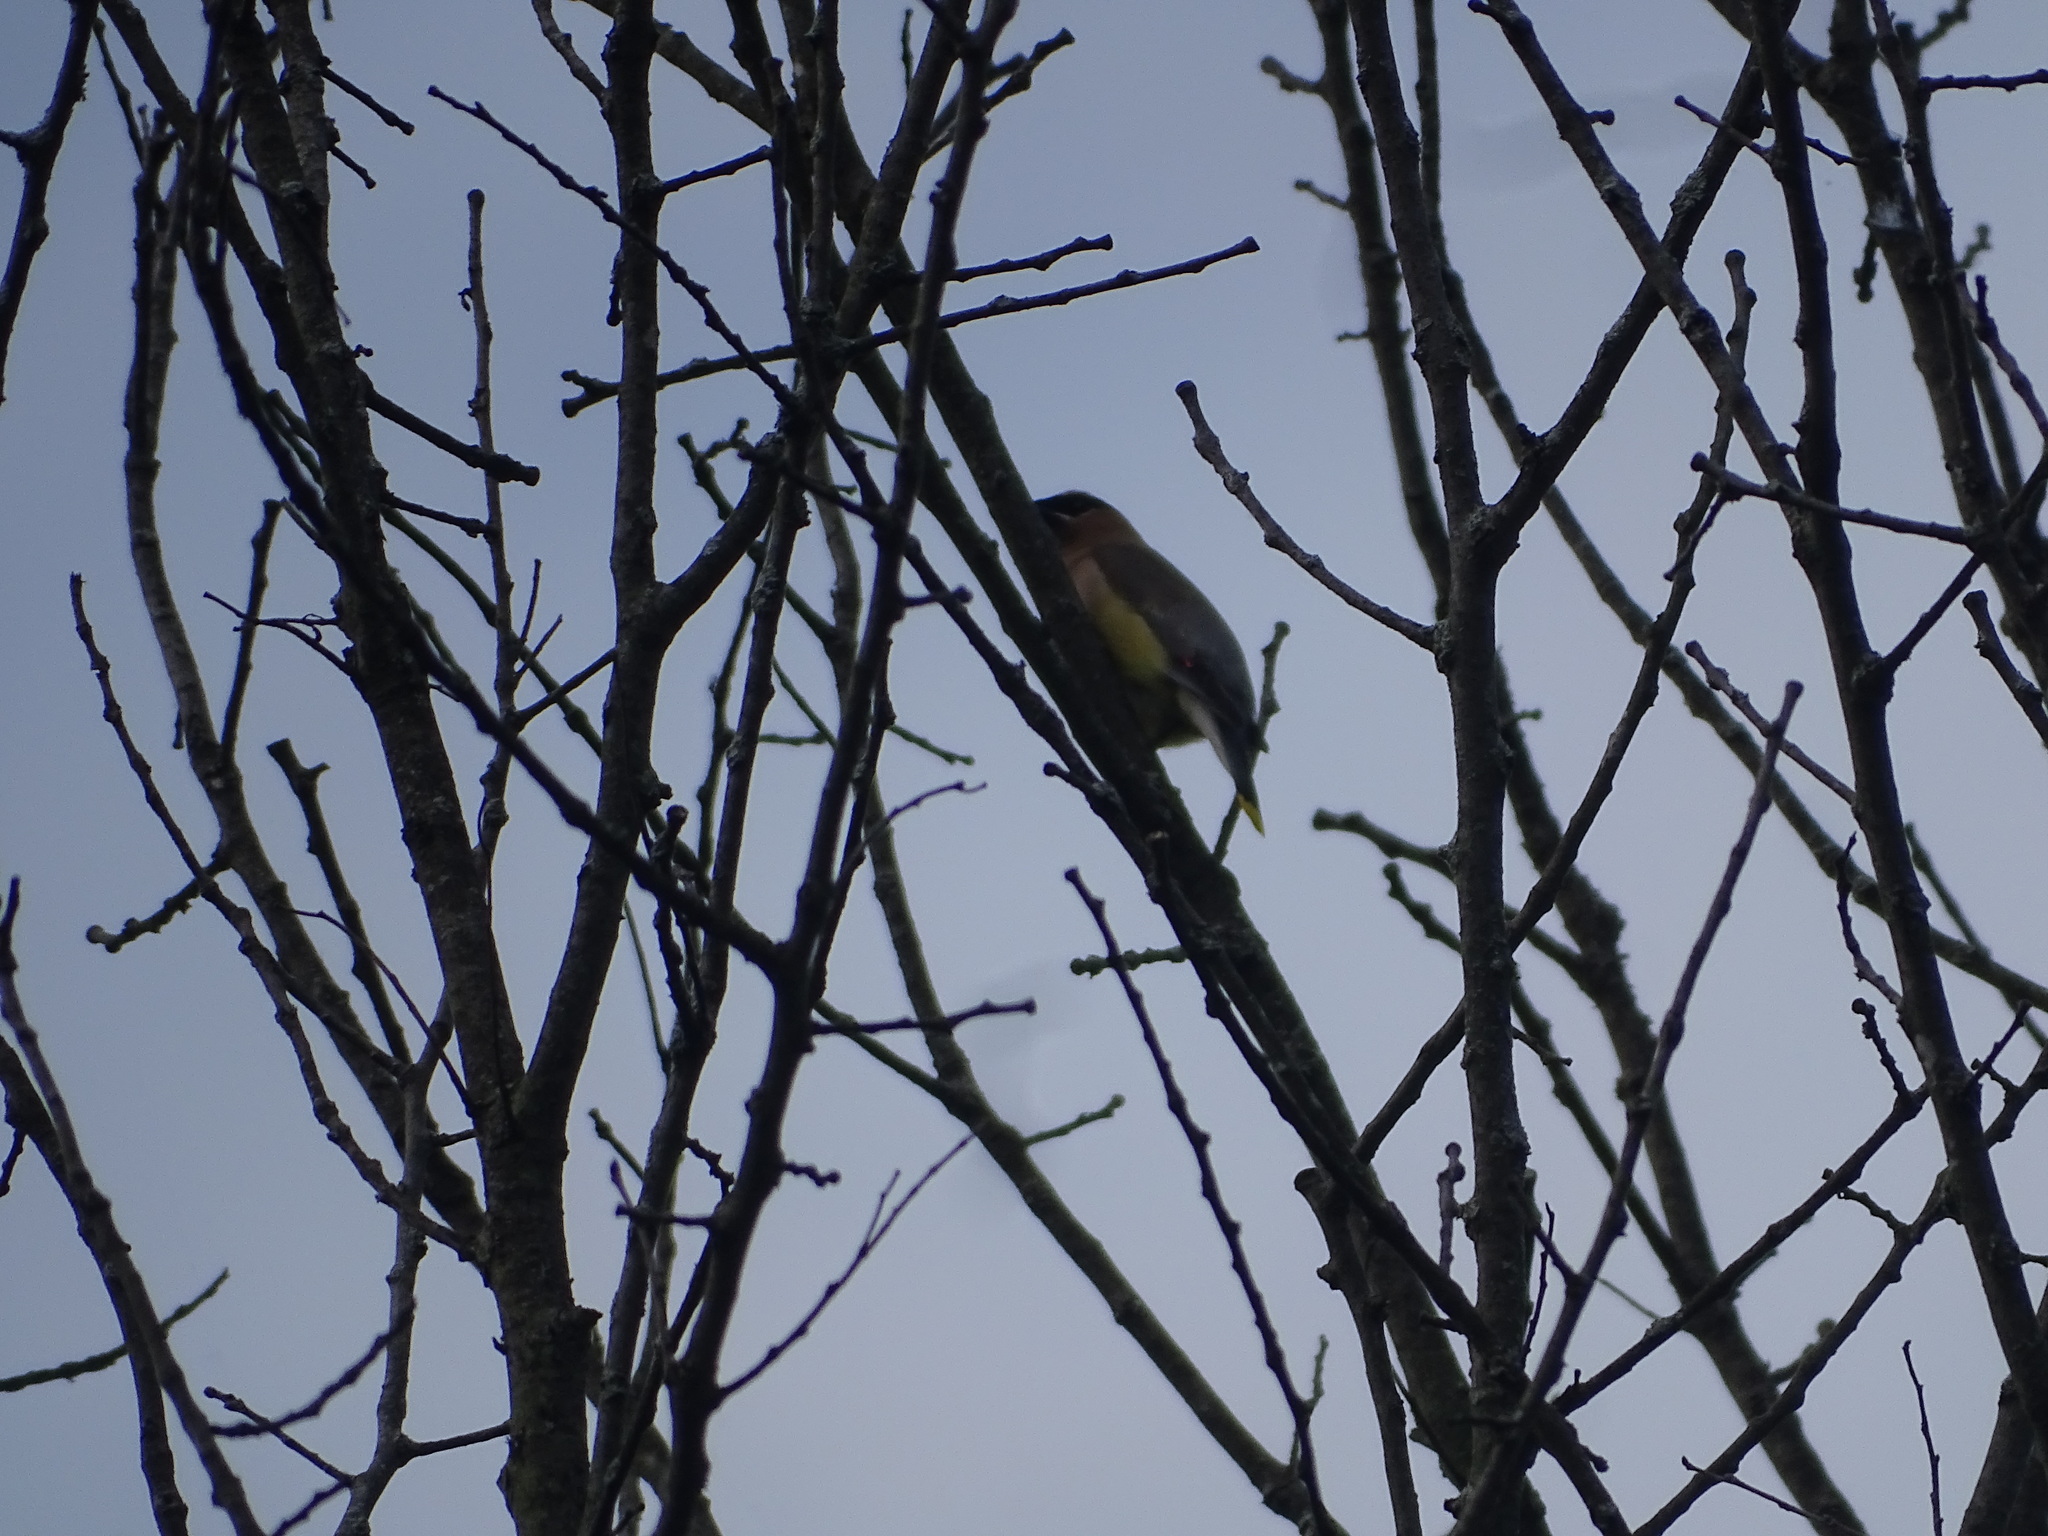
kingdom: Animalia
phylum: Chordata
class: Aves
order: Passeriformes
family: Bombycillidae
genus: Bombycilla
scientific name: Bombycilla cedrorum
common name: Cedar waxwing
